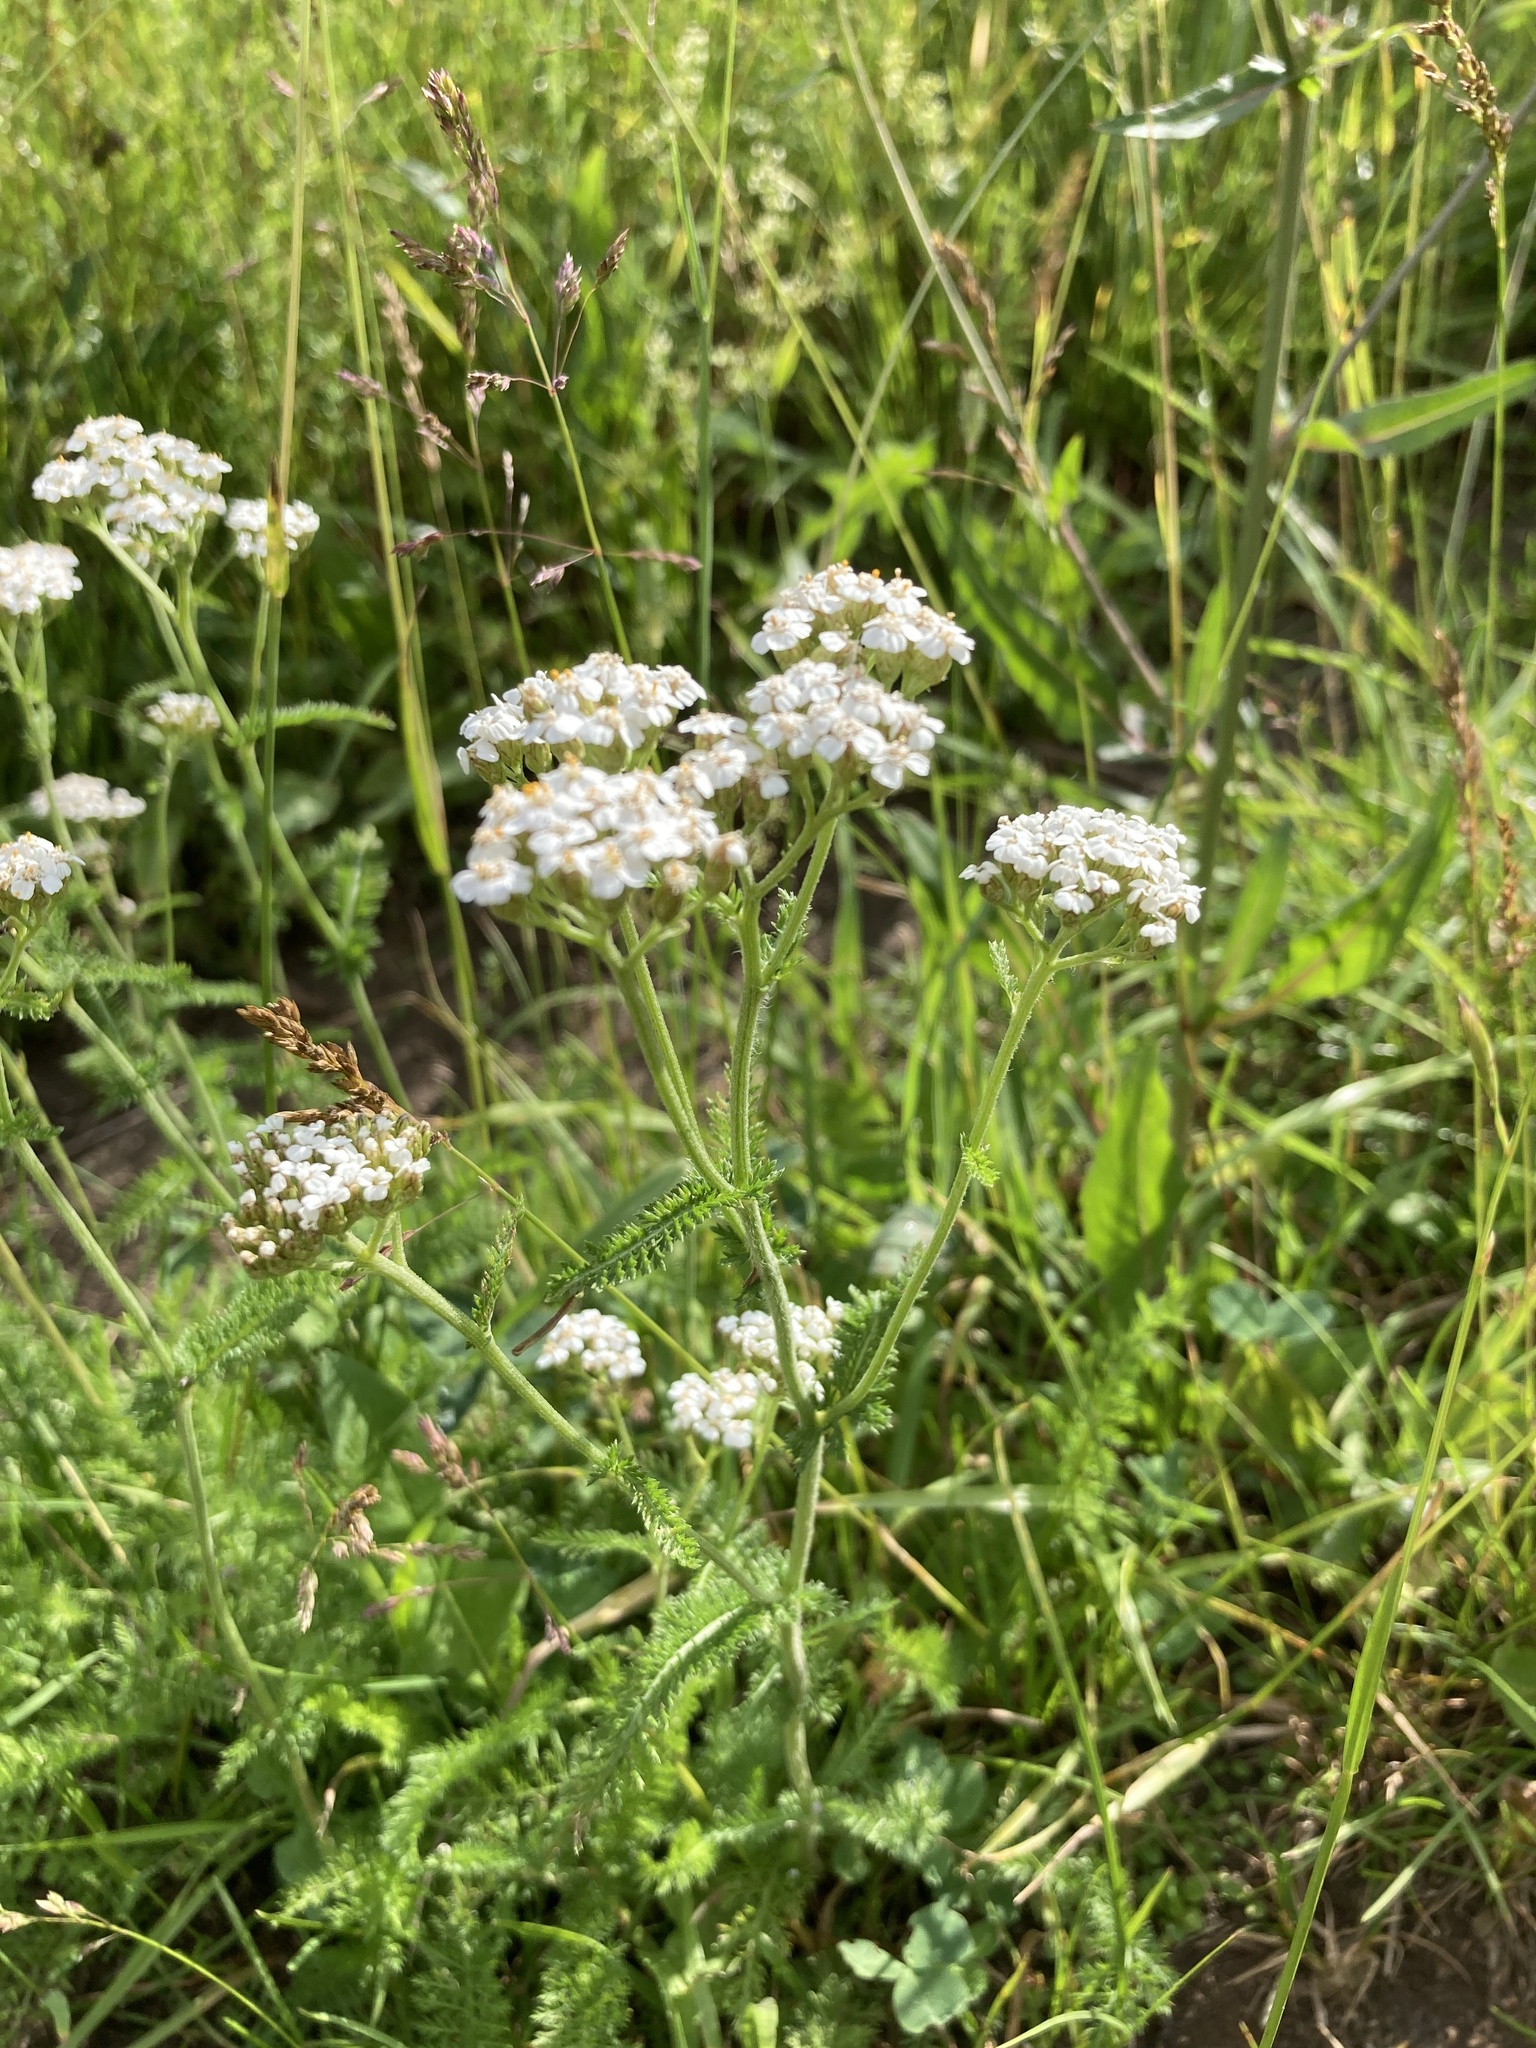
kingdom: Plantae
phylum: Tracheophyta
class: Magnoliopsida
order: Asterales
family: Asteraceae
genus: Achillea
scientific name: Achillea millefolium
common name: Yarrow
